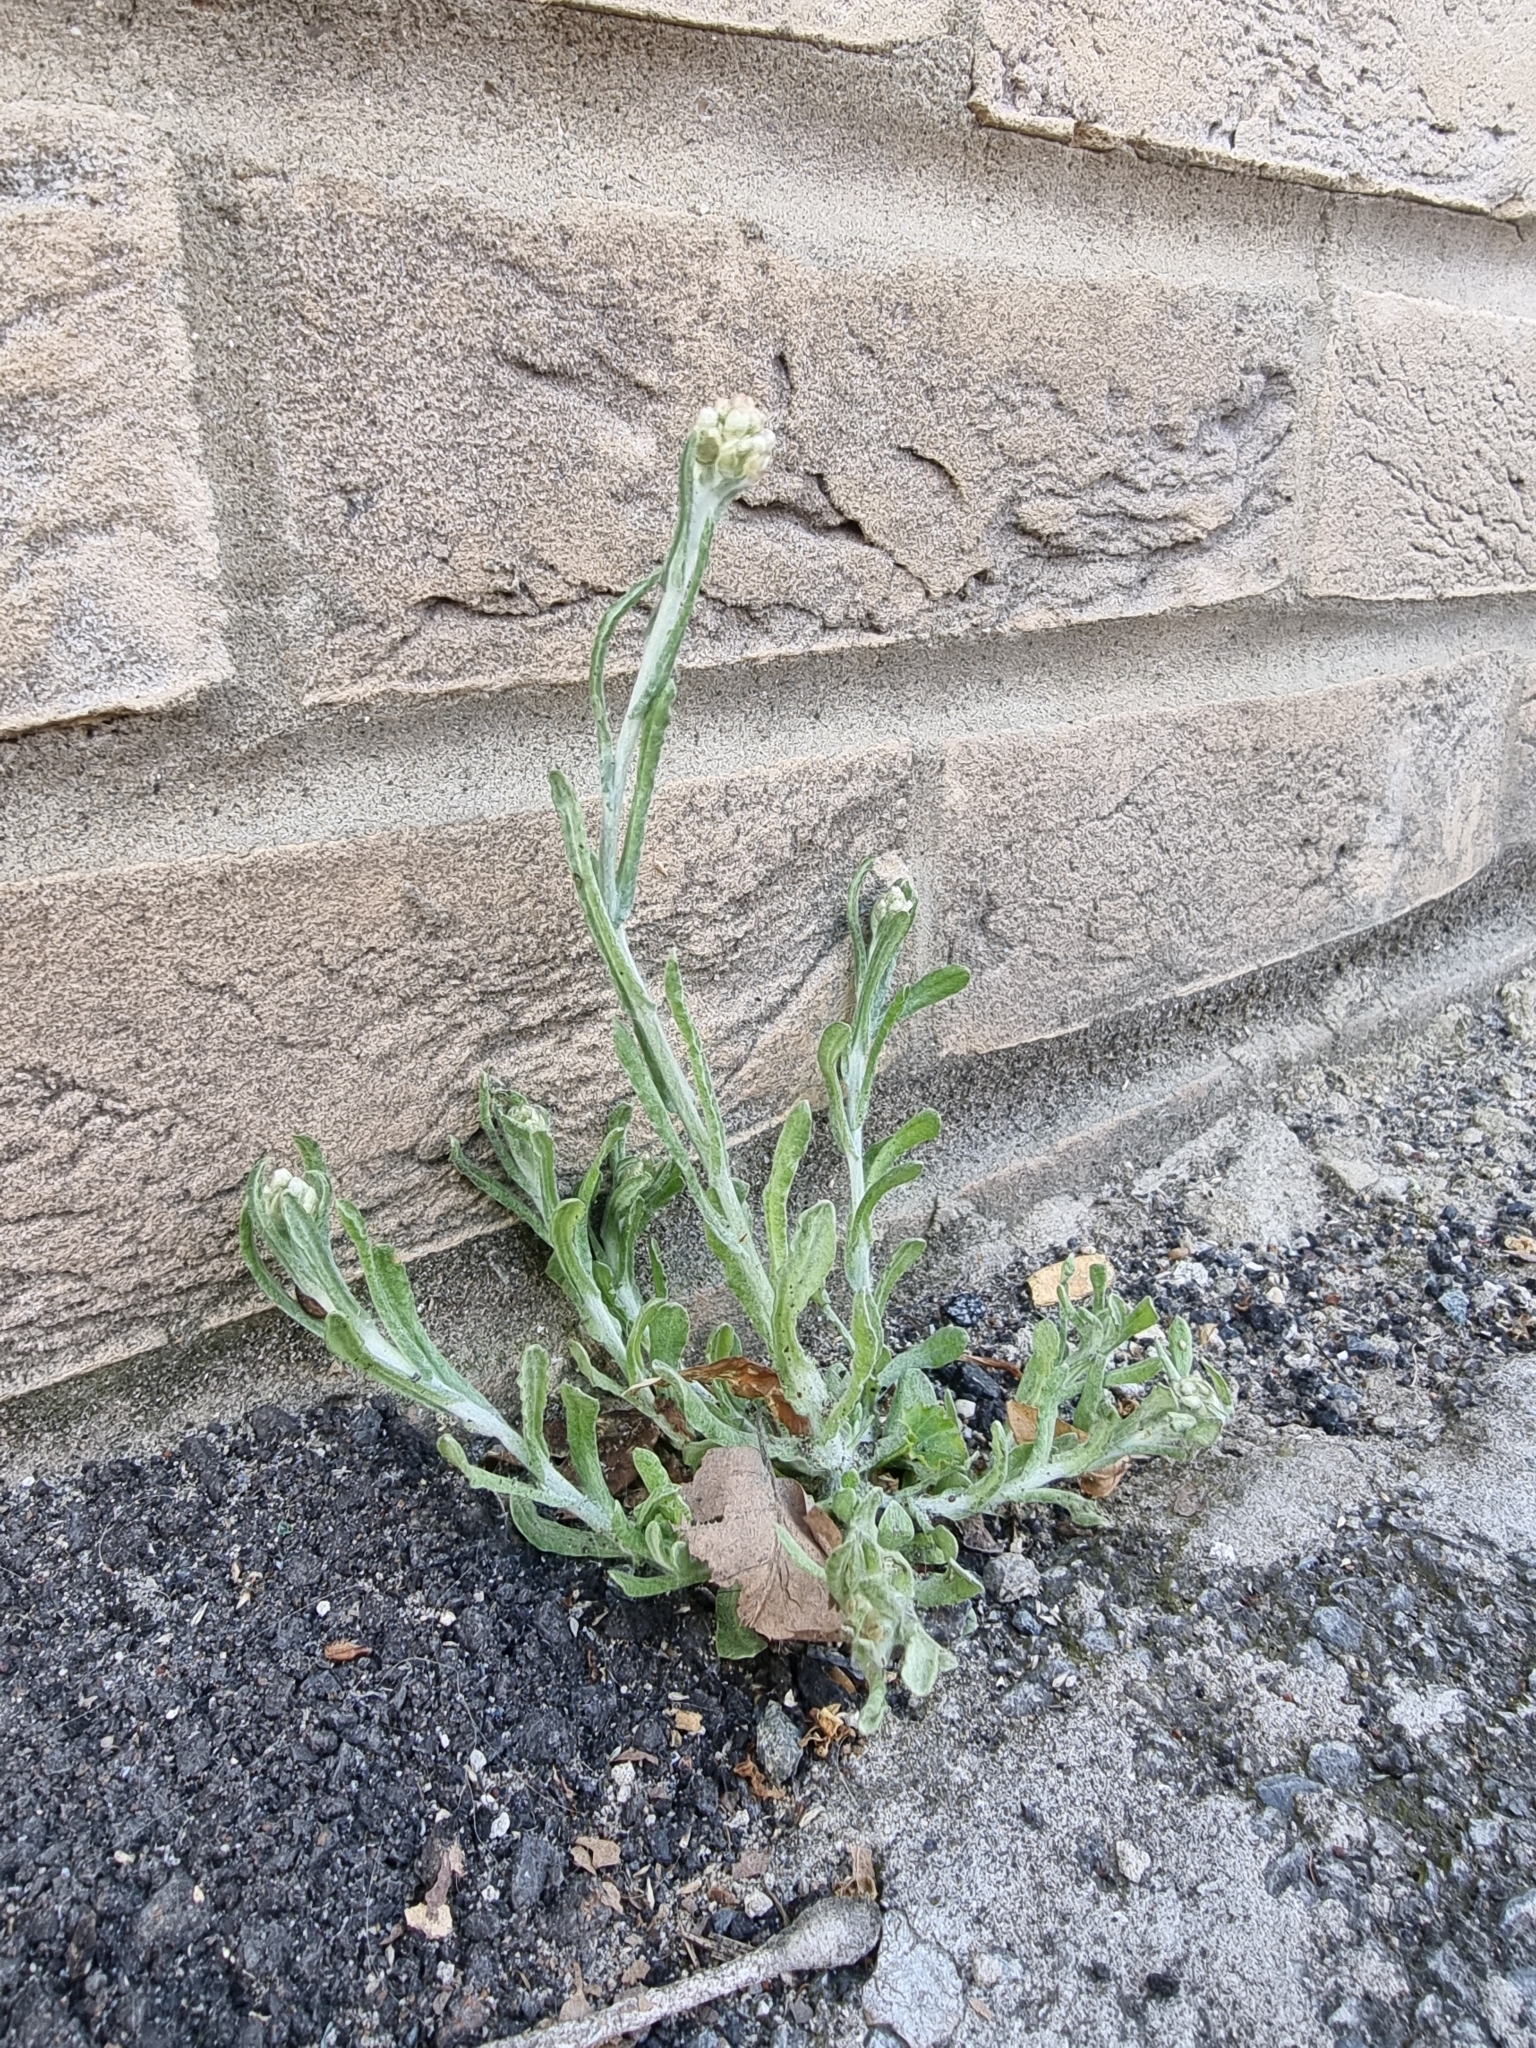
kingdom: Plantae
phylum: Tracheophyta
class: Magnoliopsida
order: Asterales
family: Asteraceae
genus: Helichrysum
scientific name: Helichrysum luteoalbum
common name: Daisy
